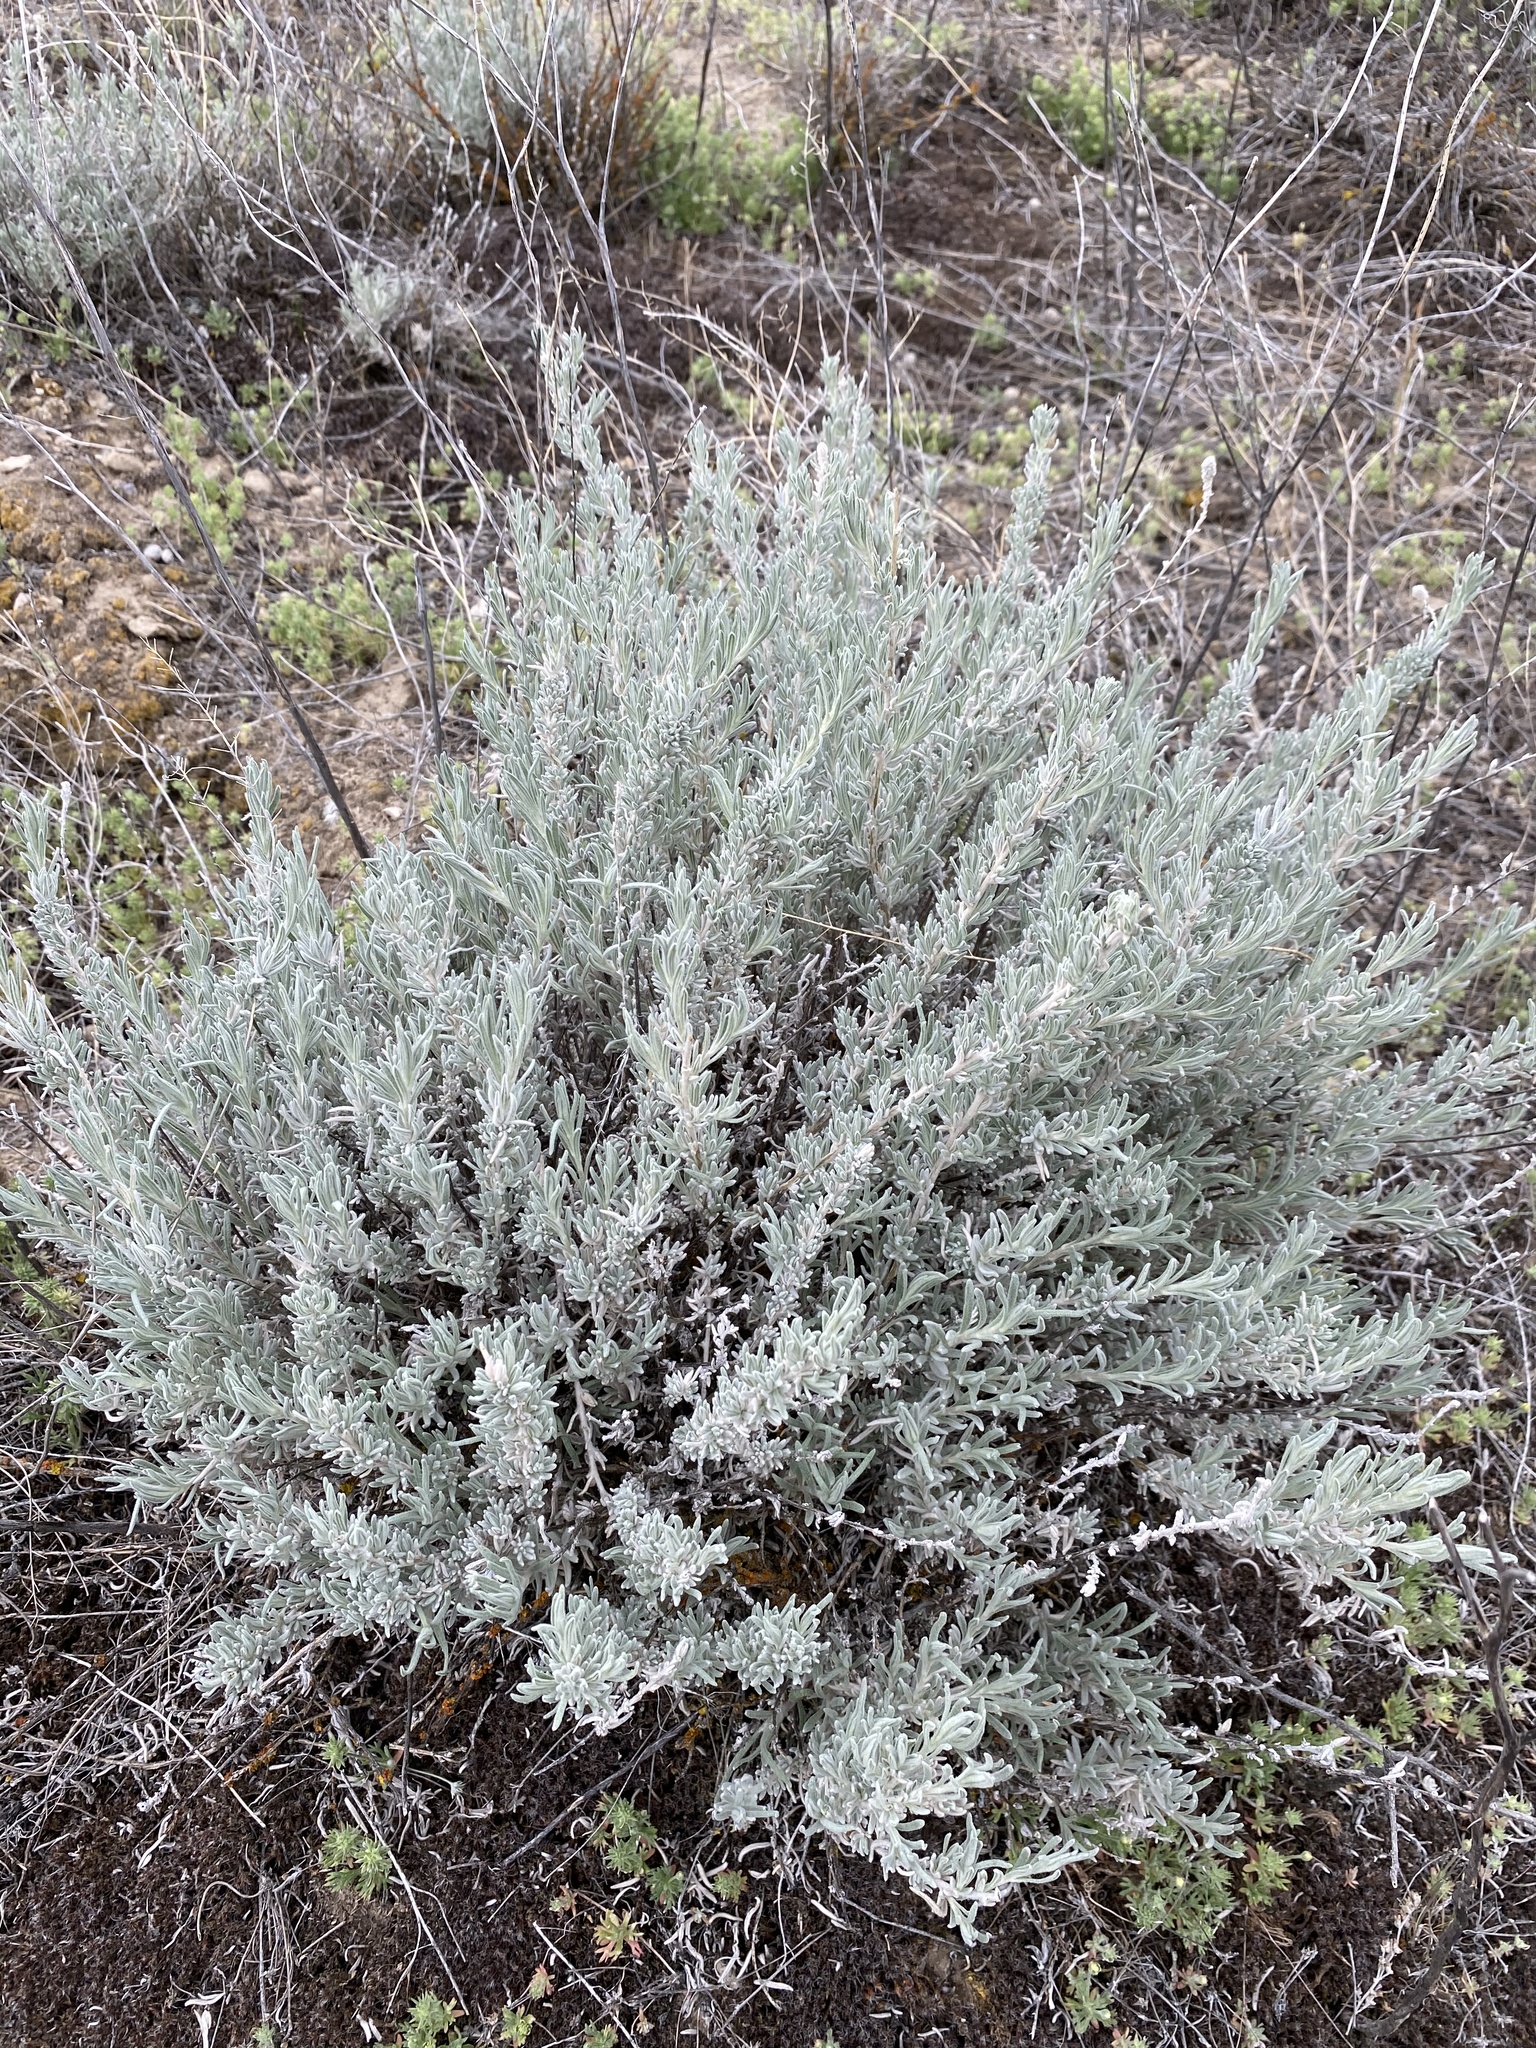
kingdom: Plantae
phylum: Tracheophyta
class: Magnoliopsida
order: Caryophyllales
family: Amaranthaceae
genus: Krascheninnikovia
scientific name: Krascheninnikovia lanata
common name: Winterfat
